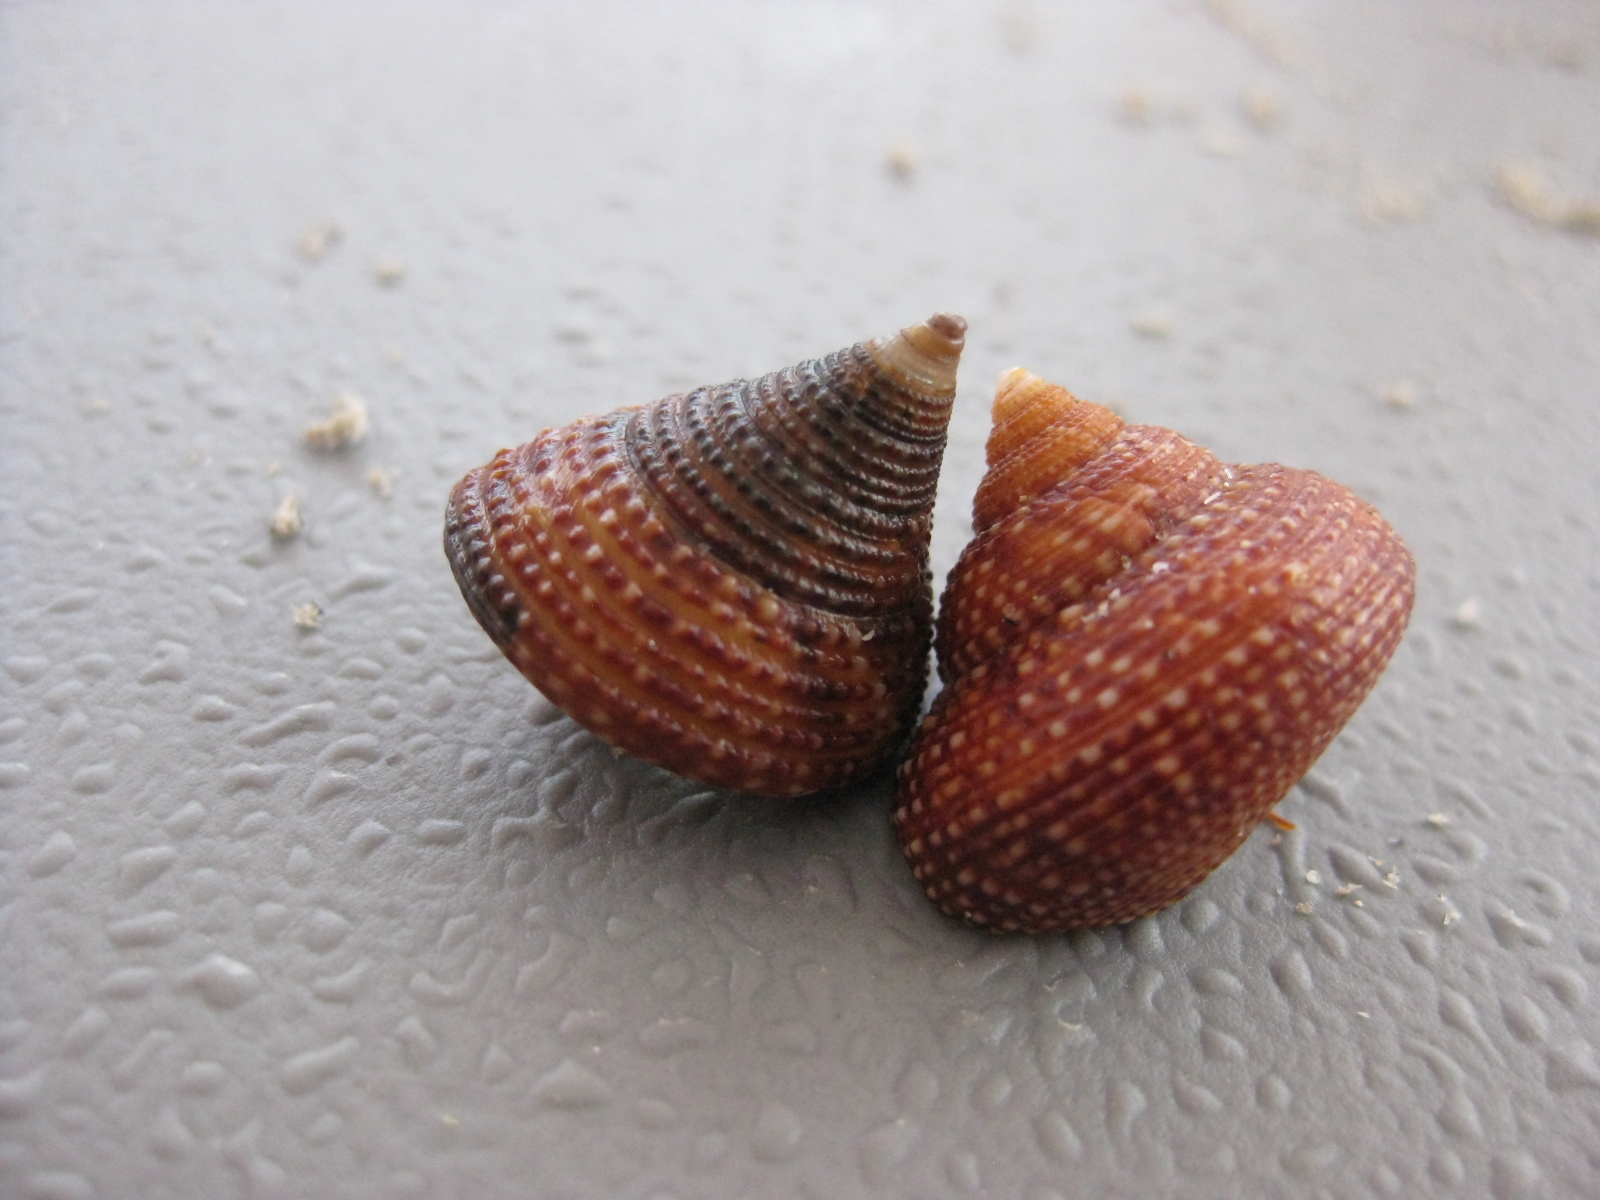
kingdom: Animalia
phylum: Mollusca
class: Gastropoda
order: Trochida
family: Calliostomatidae
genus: Maurea
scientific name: Maurea punctulata
